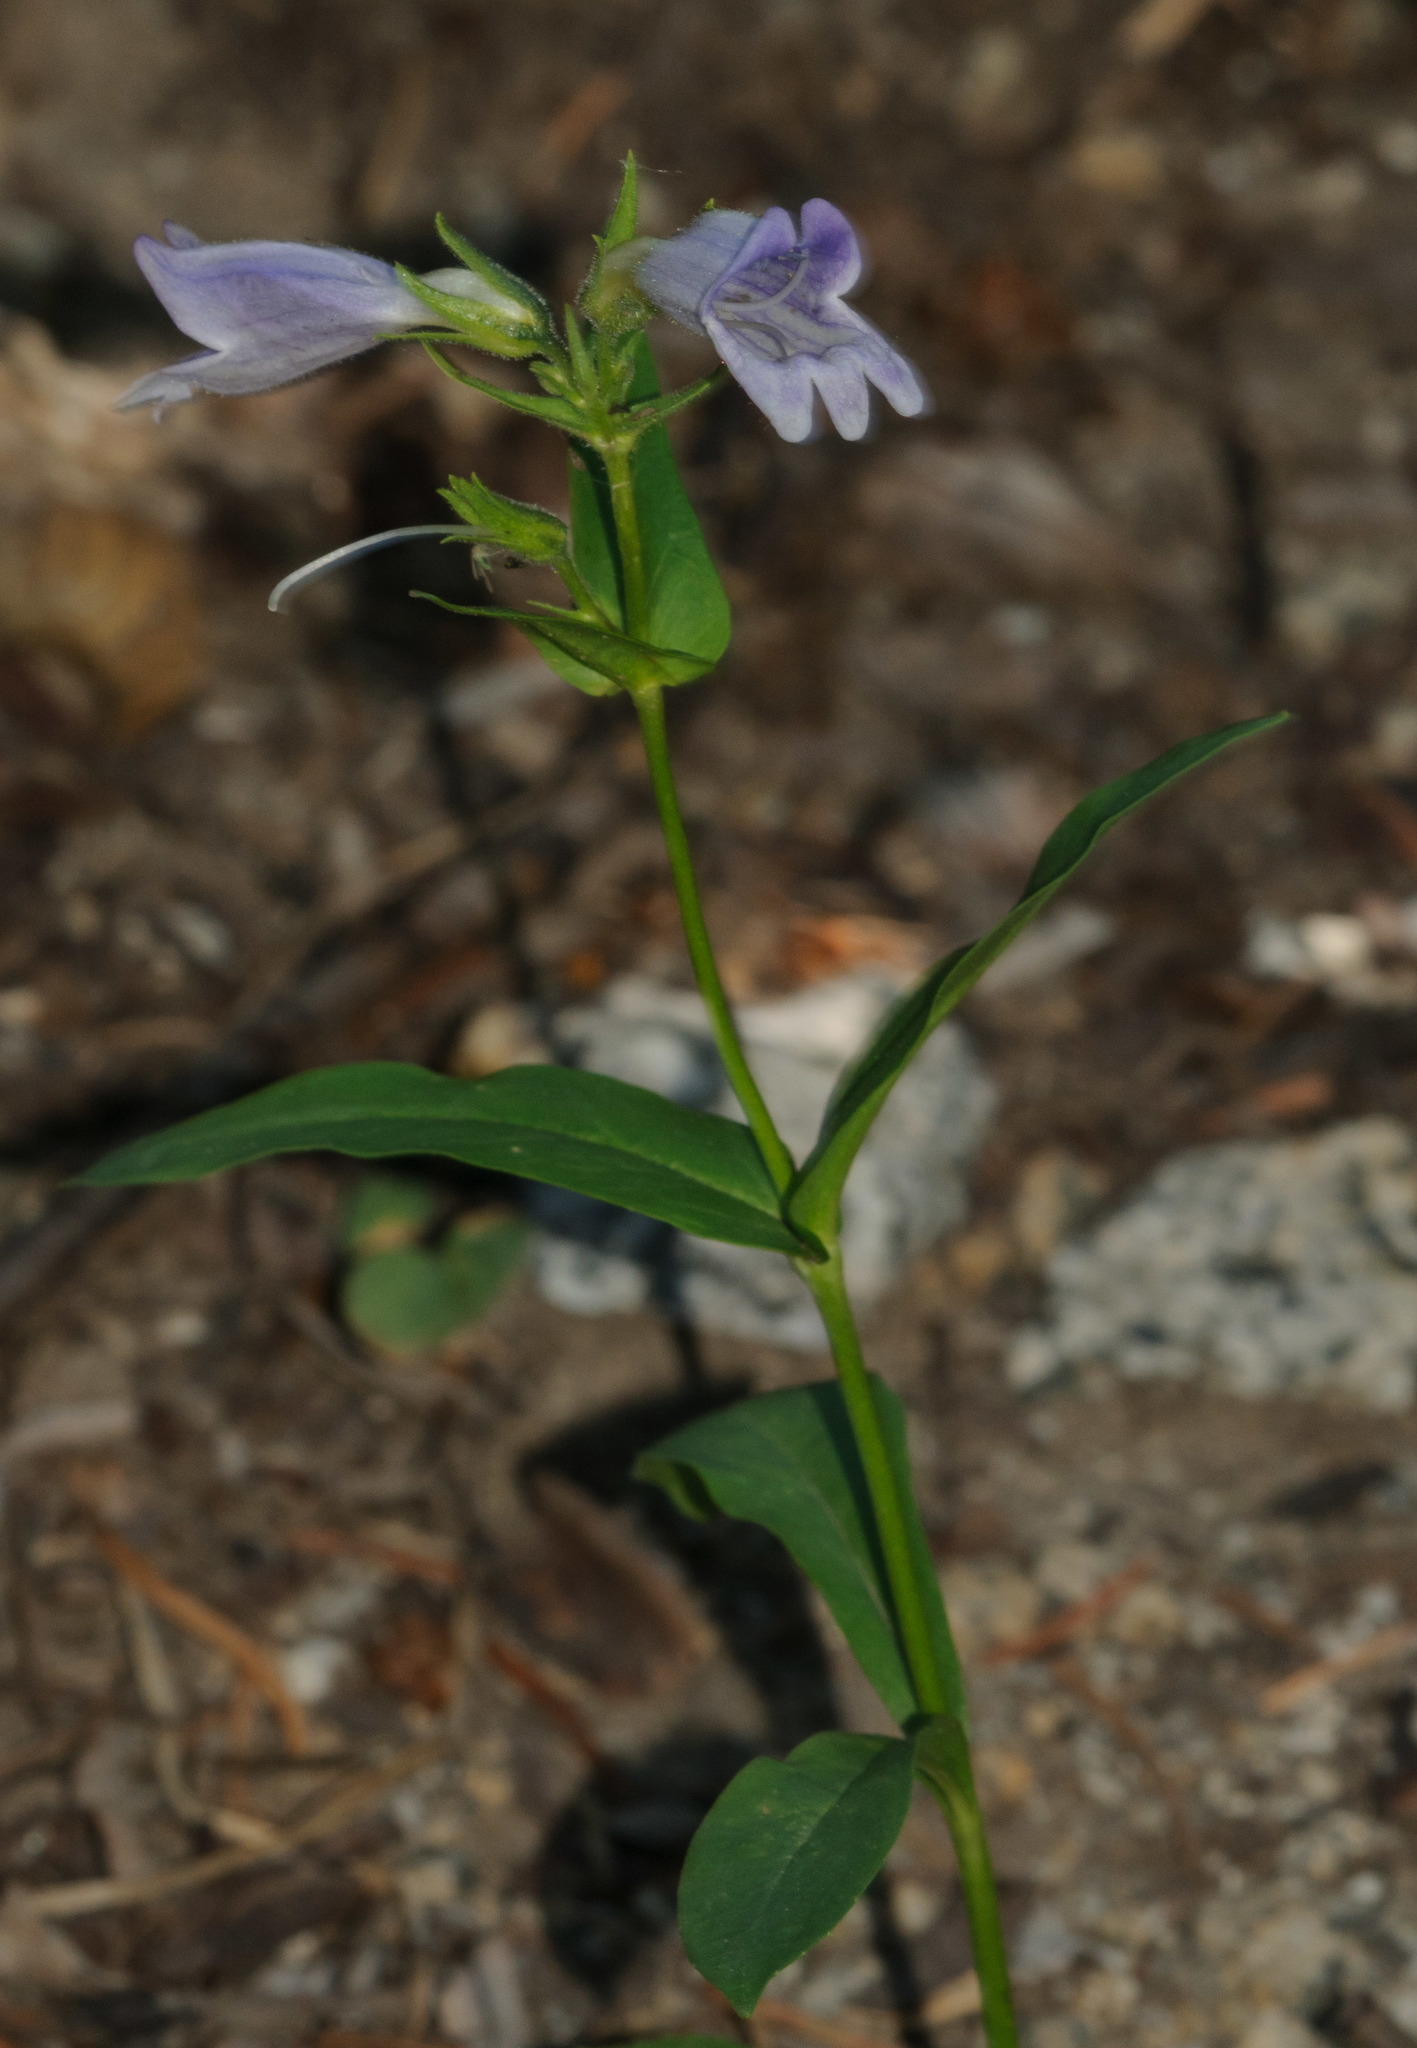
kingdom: Plantae
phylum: Tracheophyta
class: Magnoliopsida
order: Lamiales
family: Plantaginaceae
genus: Penstemon
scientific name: Penstemon whippleanus
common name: Whipple's penstemon
